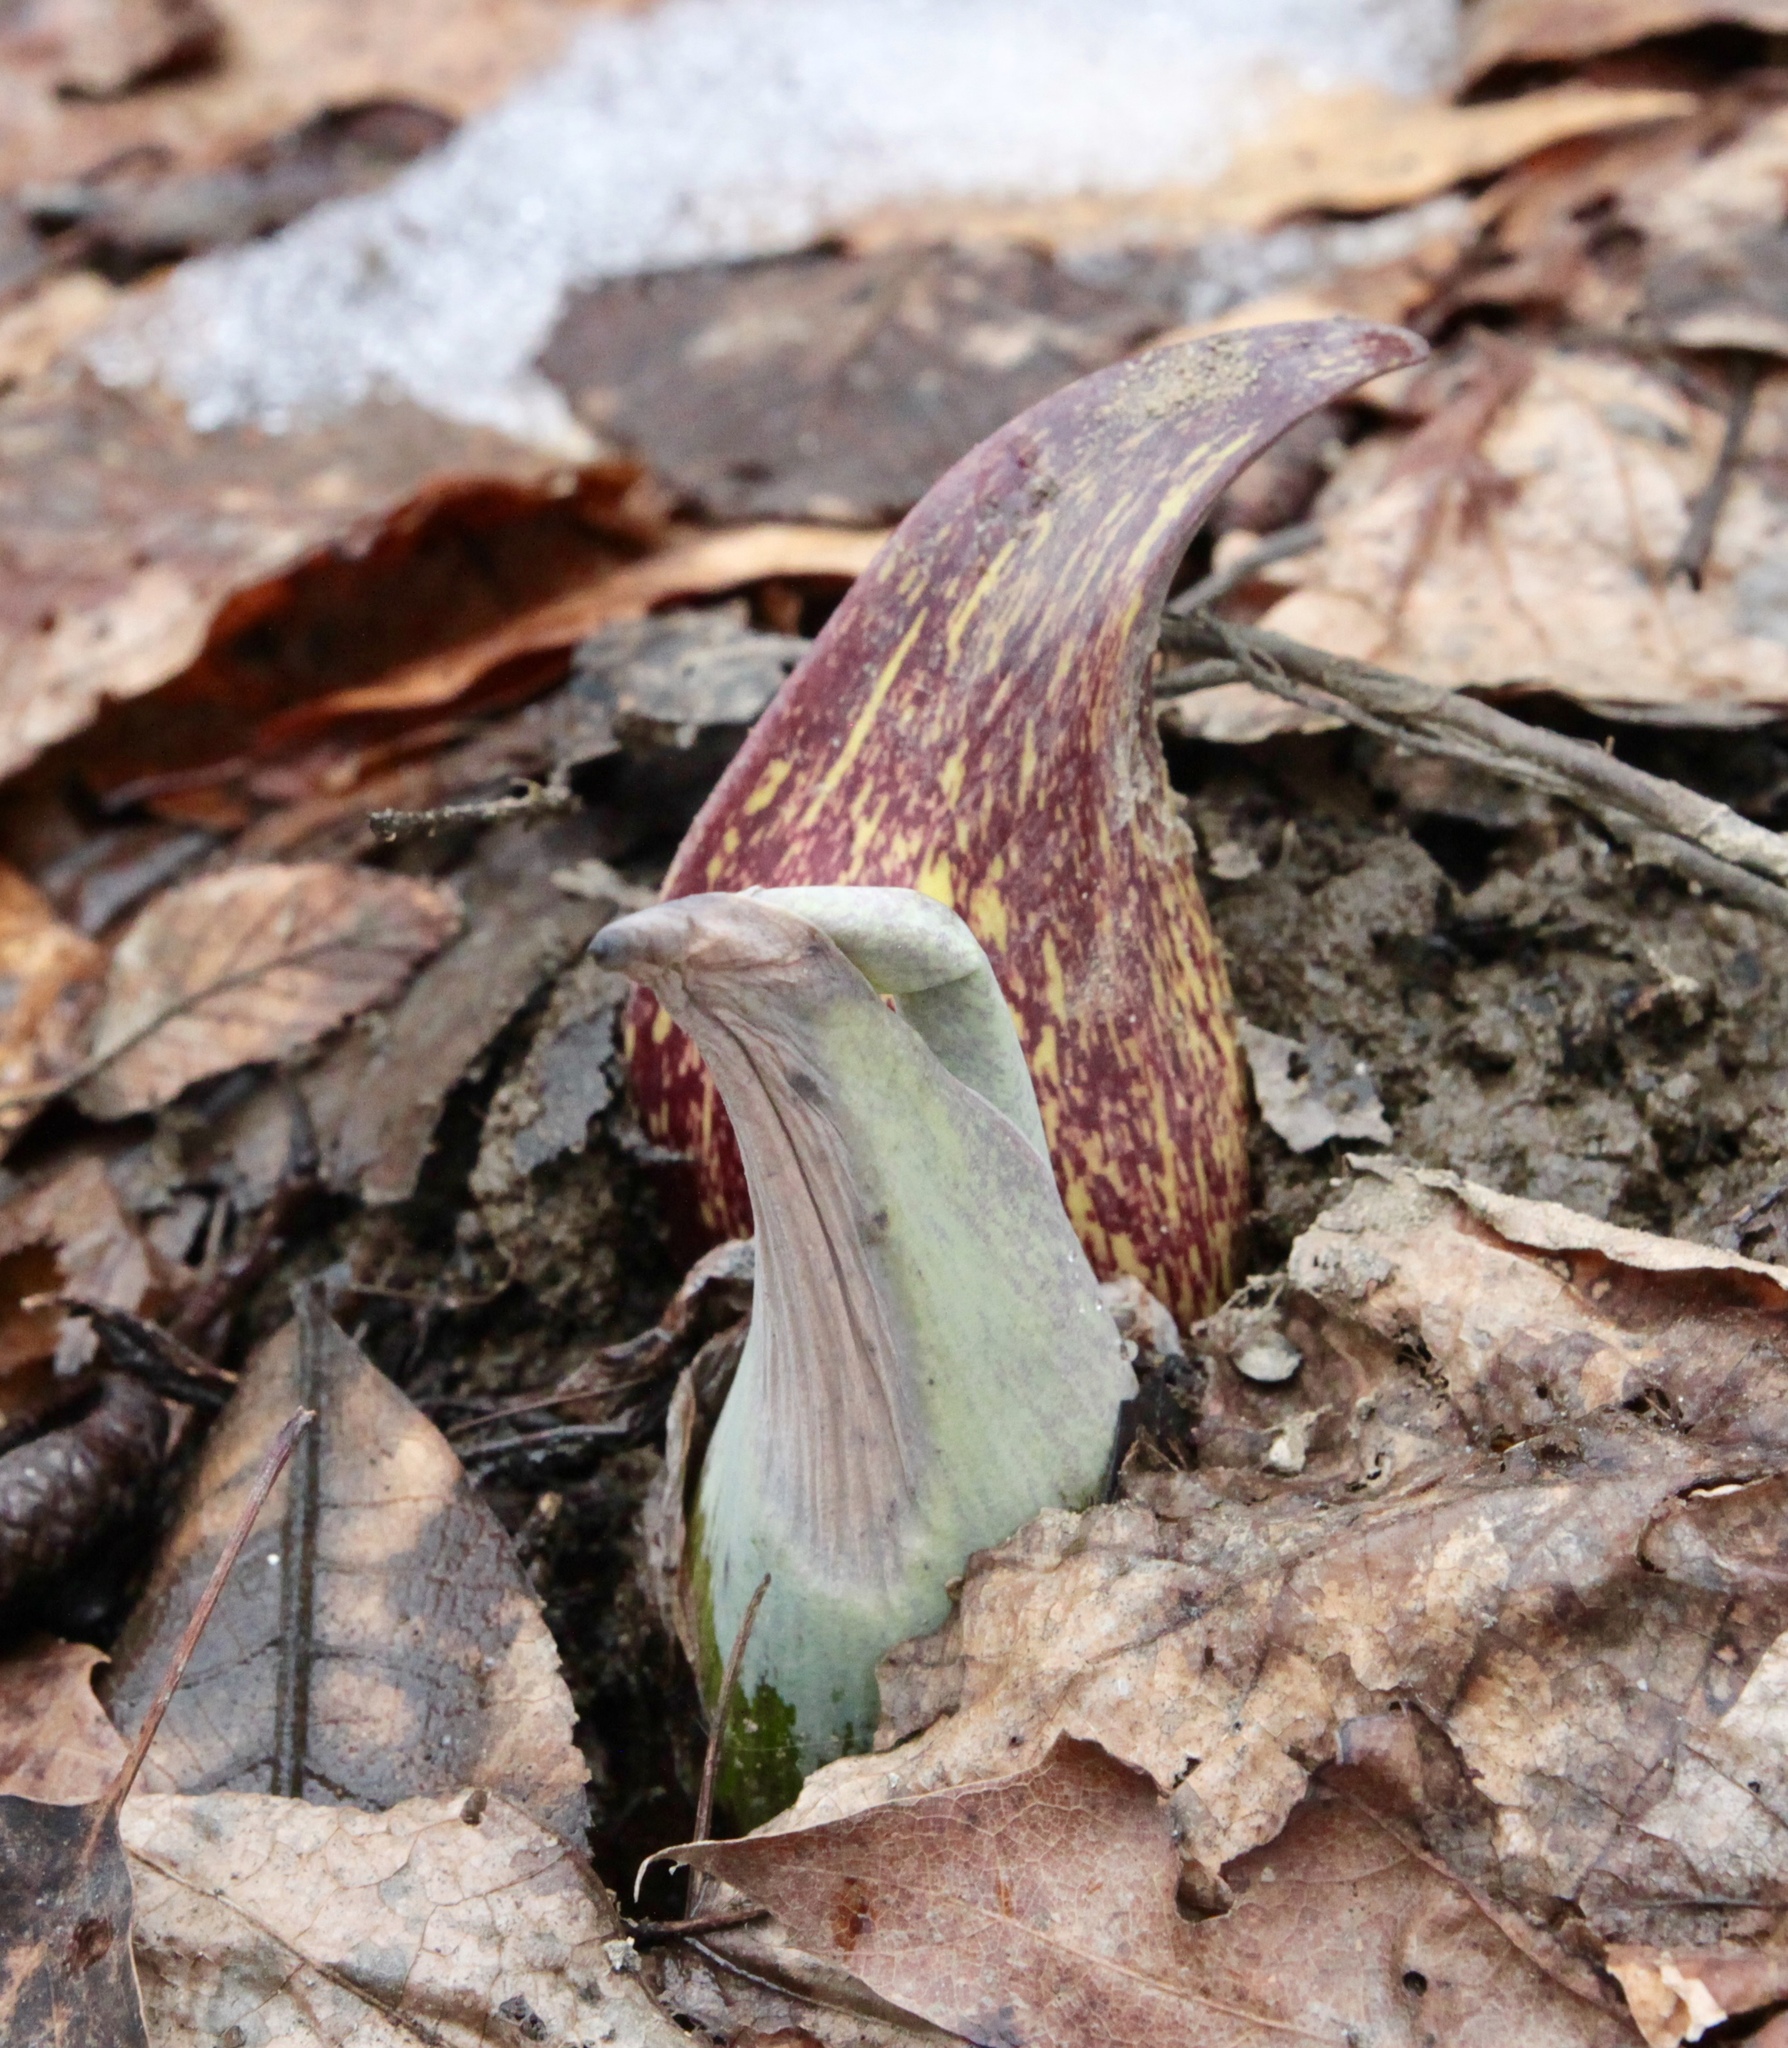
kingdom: Plantae
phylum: Tracheophyta
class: Liliopsida
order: Alismatales
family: Araceae
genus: Symplocarpus
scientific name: Symplocarpus foetidus
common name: Eastern skunk cabbage
